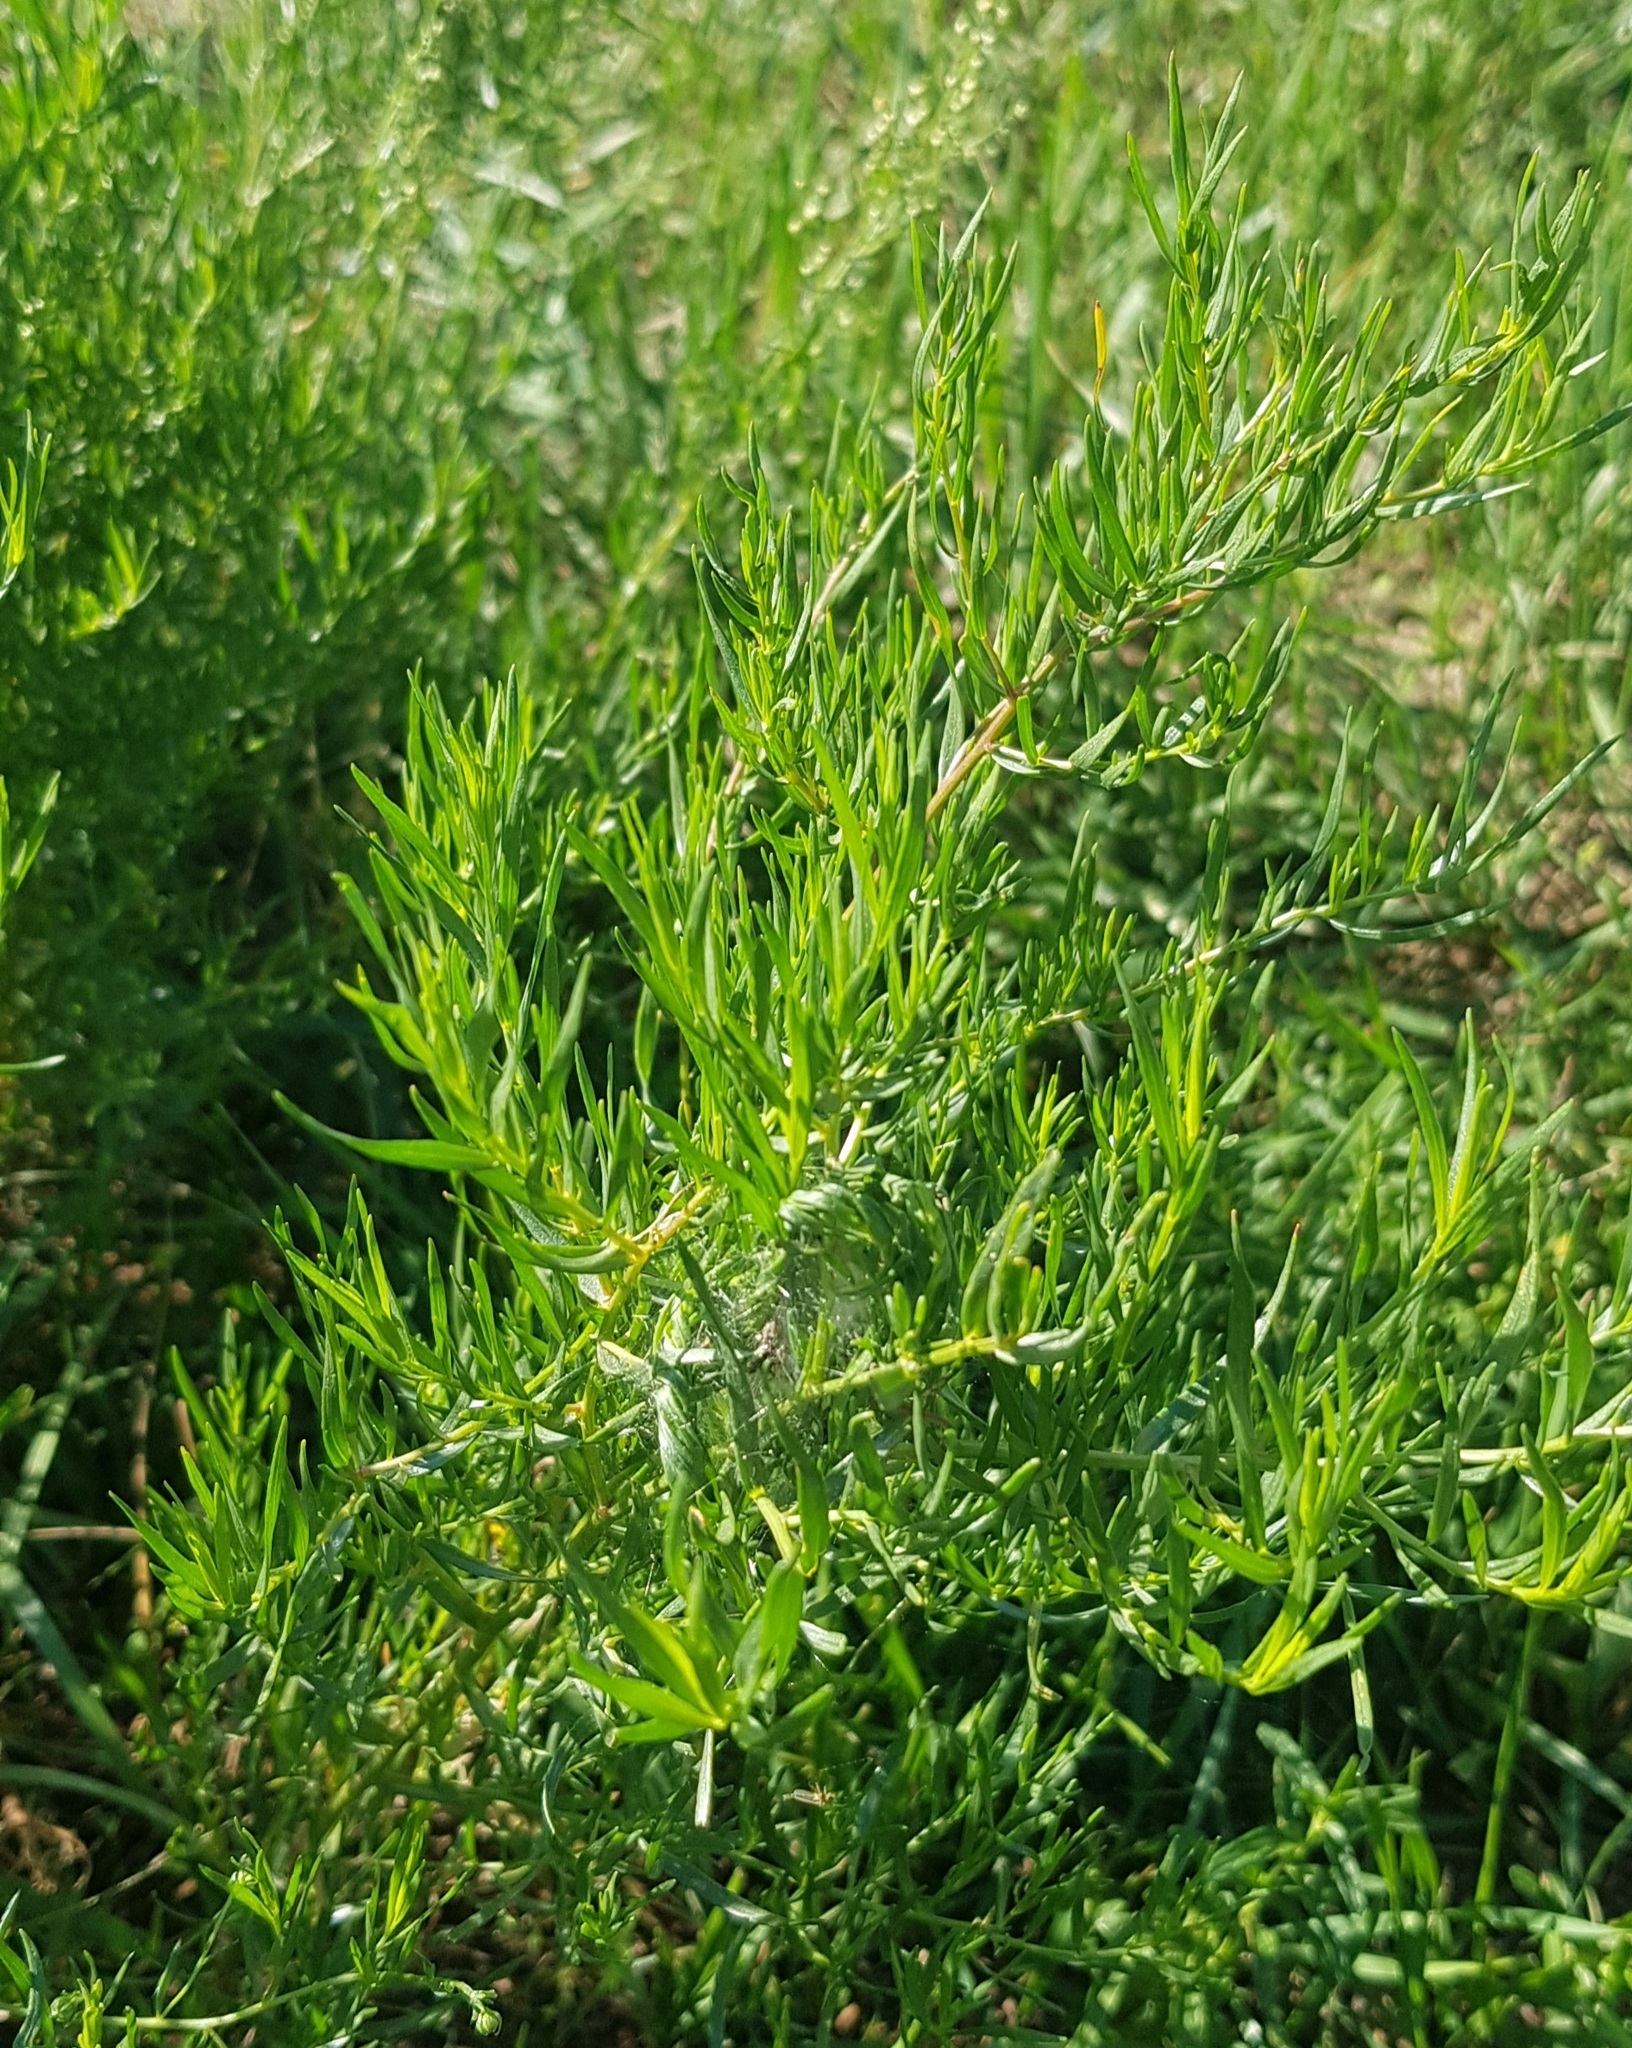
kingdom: Plantae
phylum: Tracheophyta
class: Magnoliopsida
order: Asterales
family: Asteraceae
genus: Artemisia
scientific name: Artemisia dracunculus
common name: Tarragon
